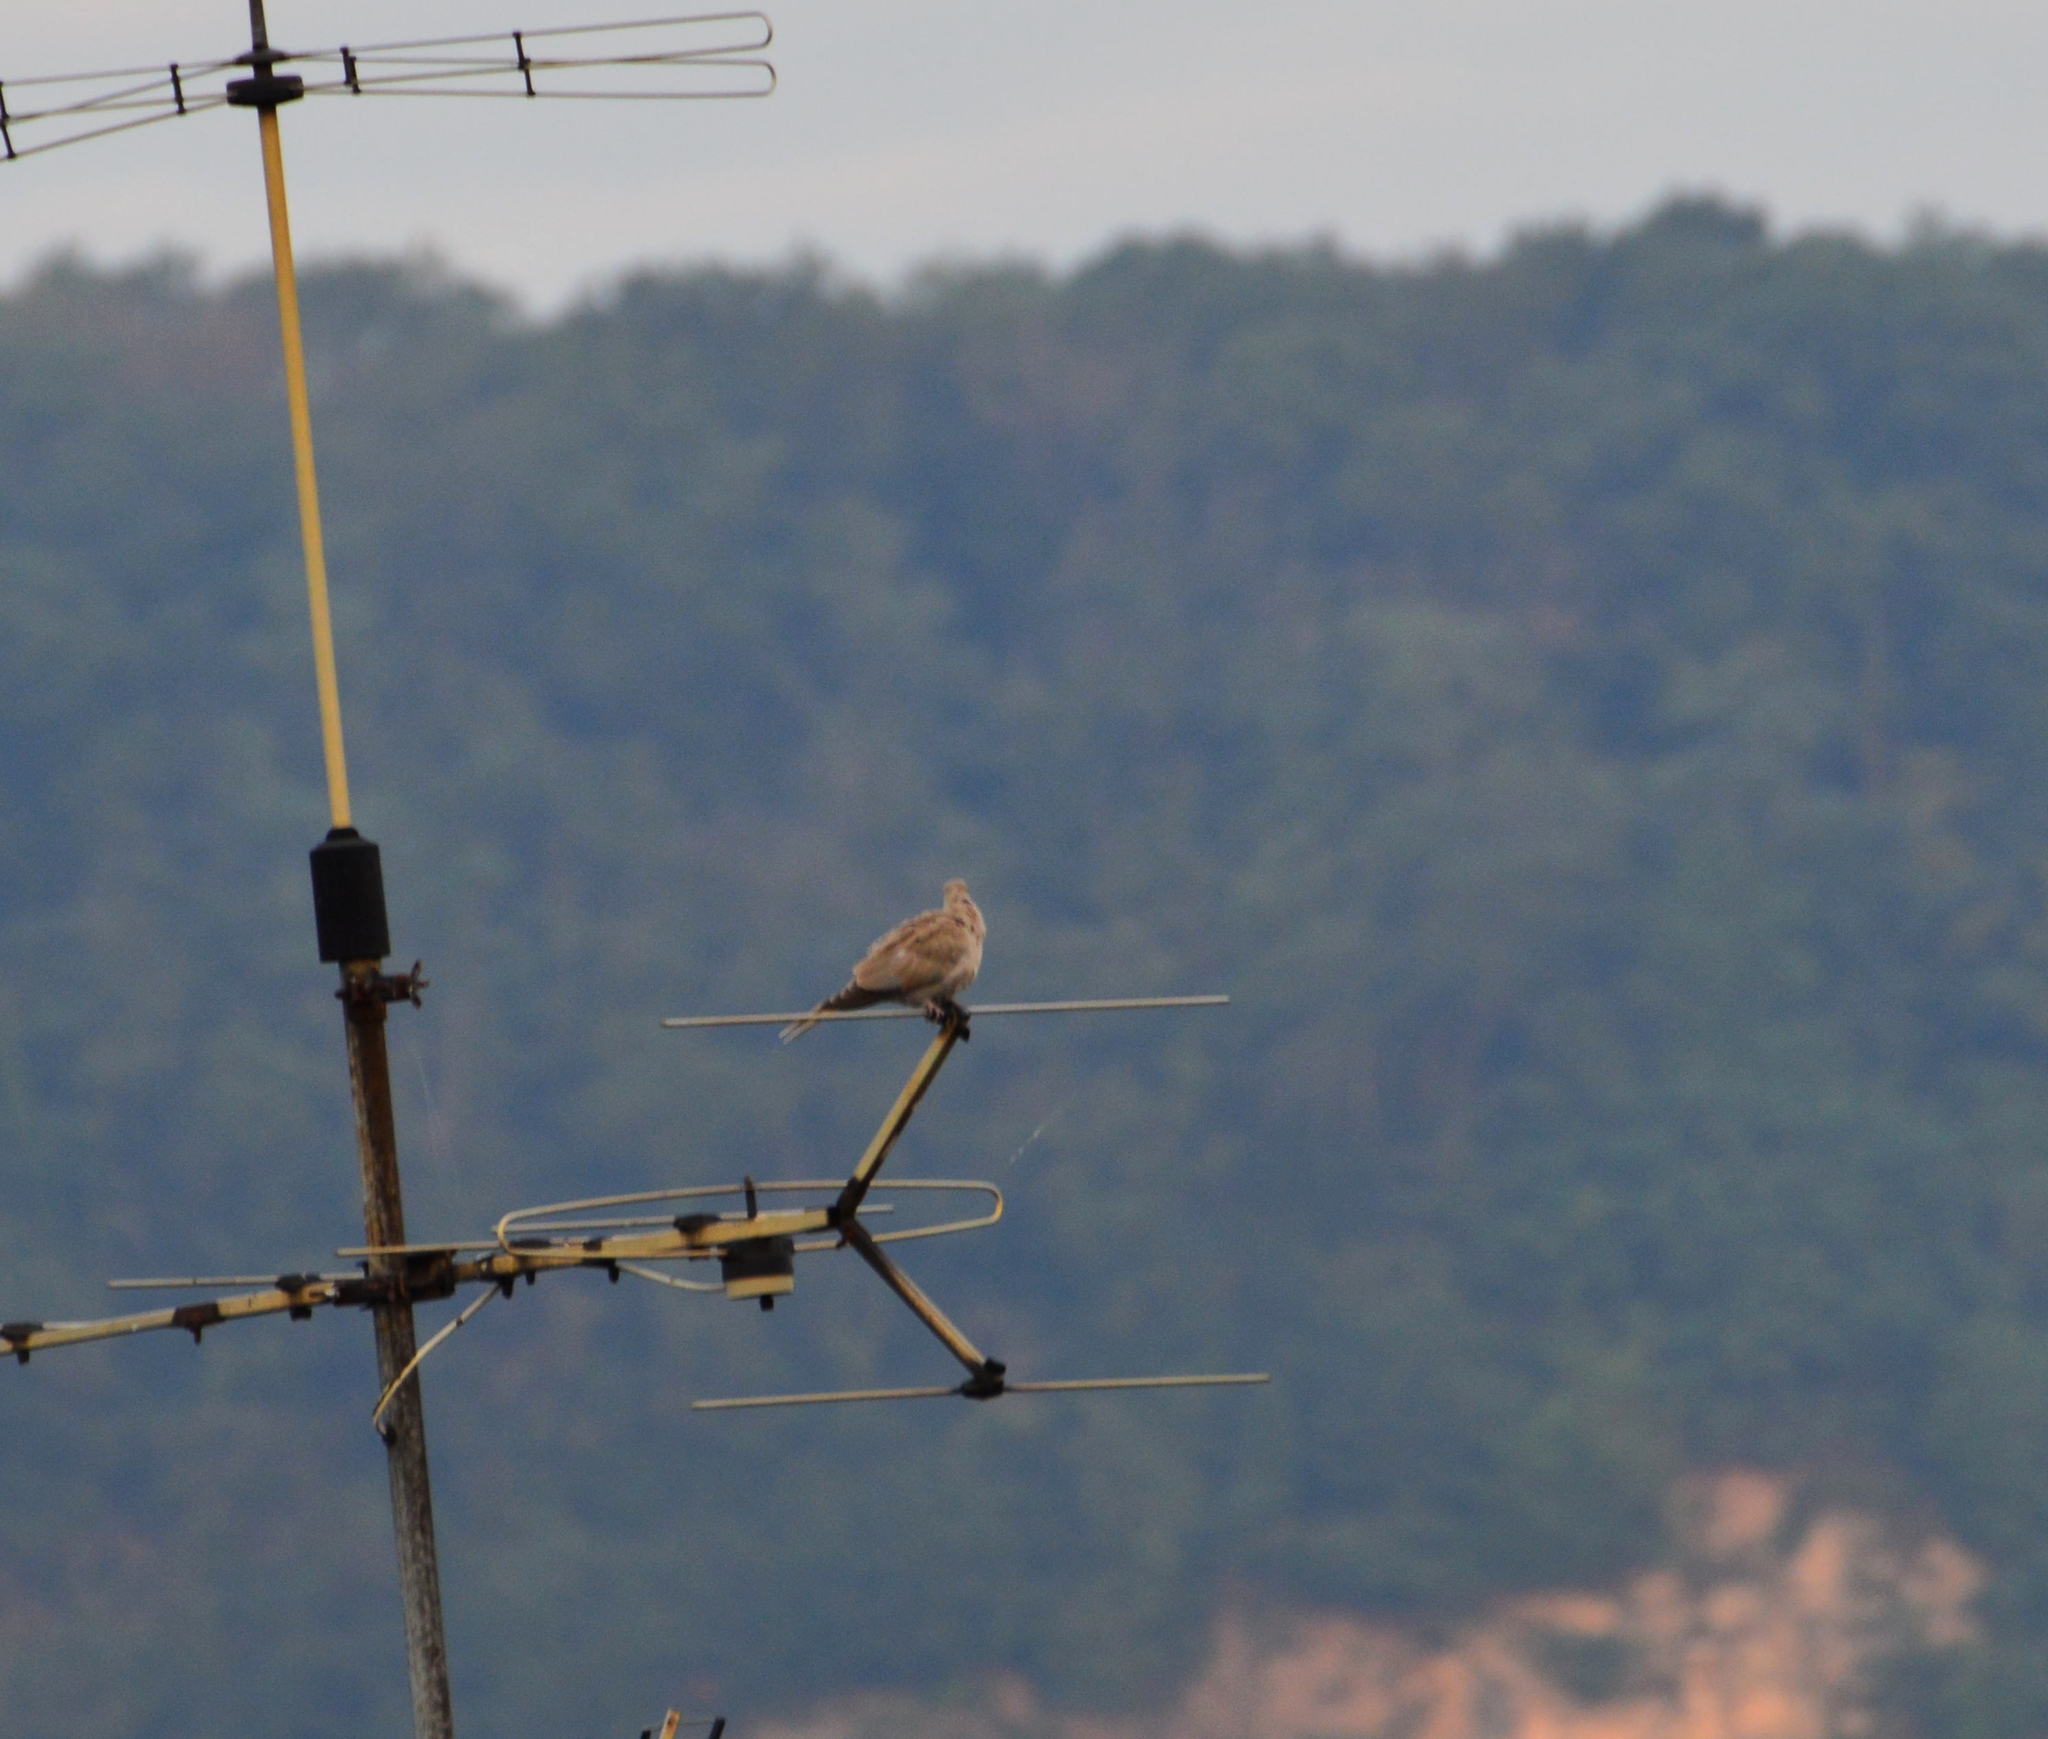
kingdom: Animalia
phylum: Chordata
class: Aves
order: Columbiformes
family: Columbidae
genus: Streptopelia
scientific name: Streptopelia decaocto
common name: Eurasian collared dove
